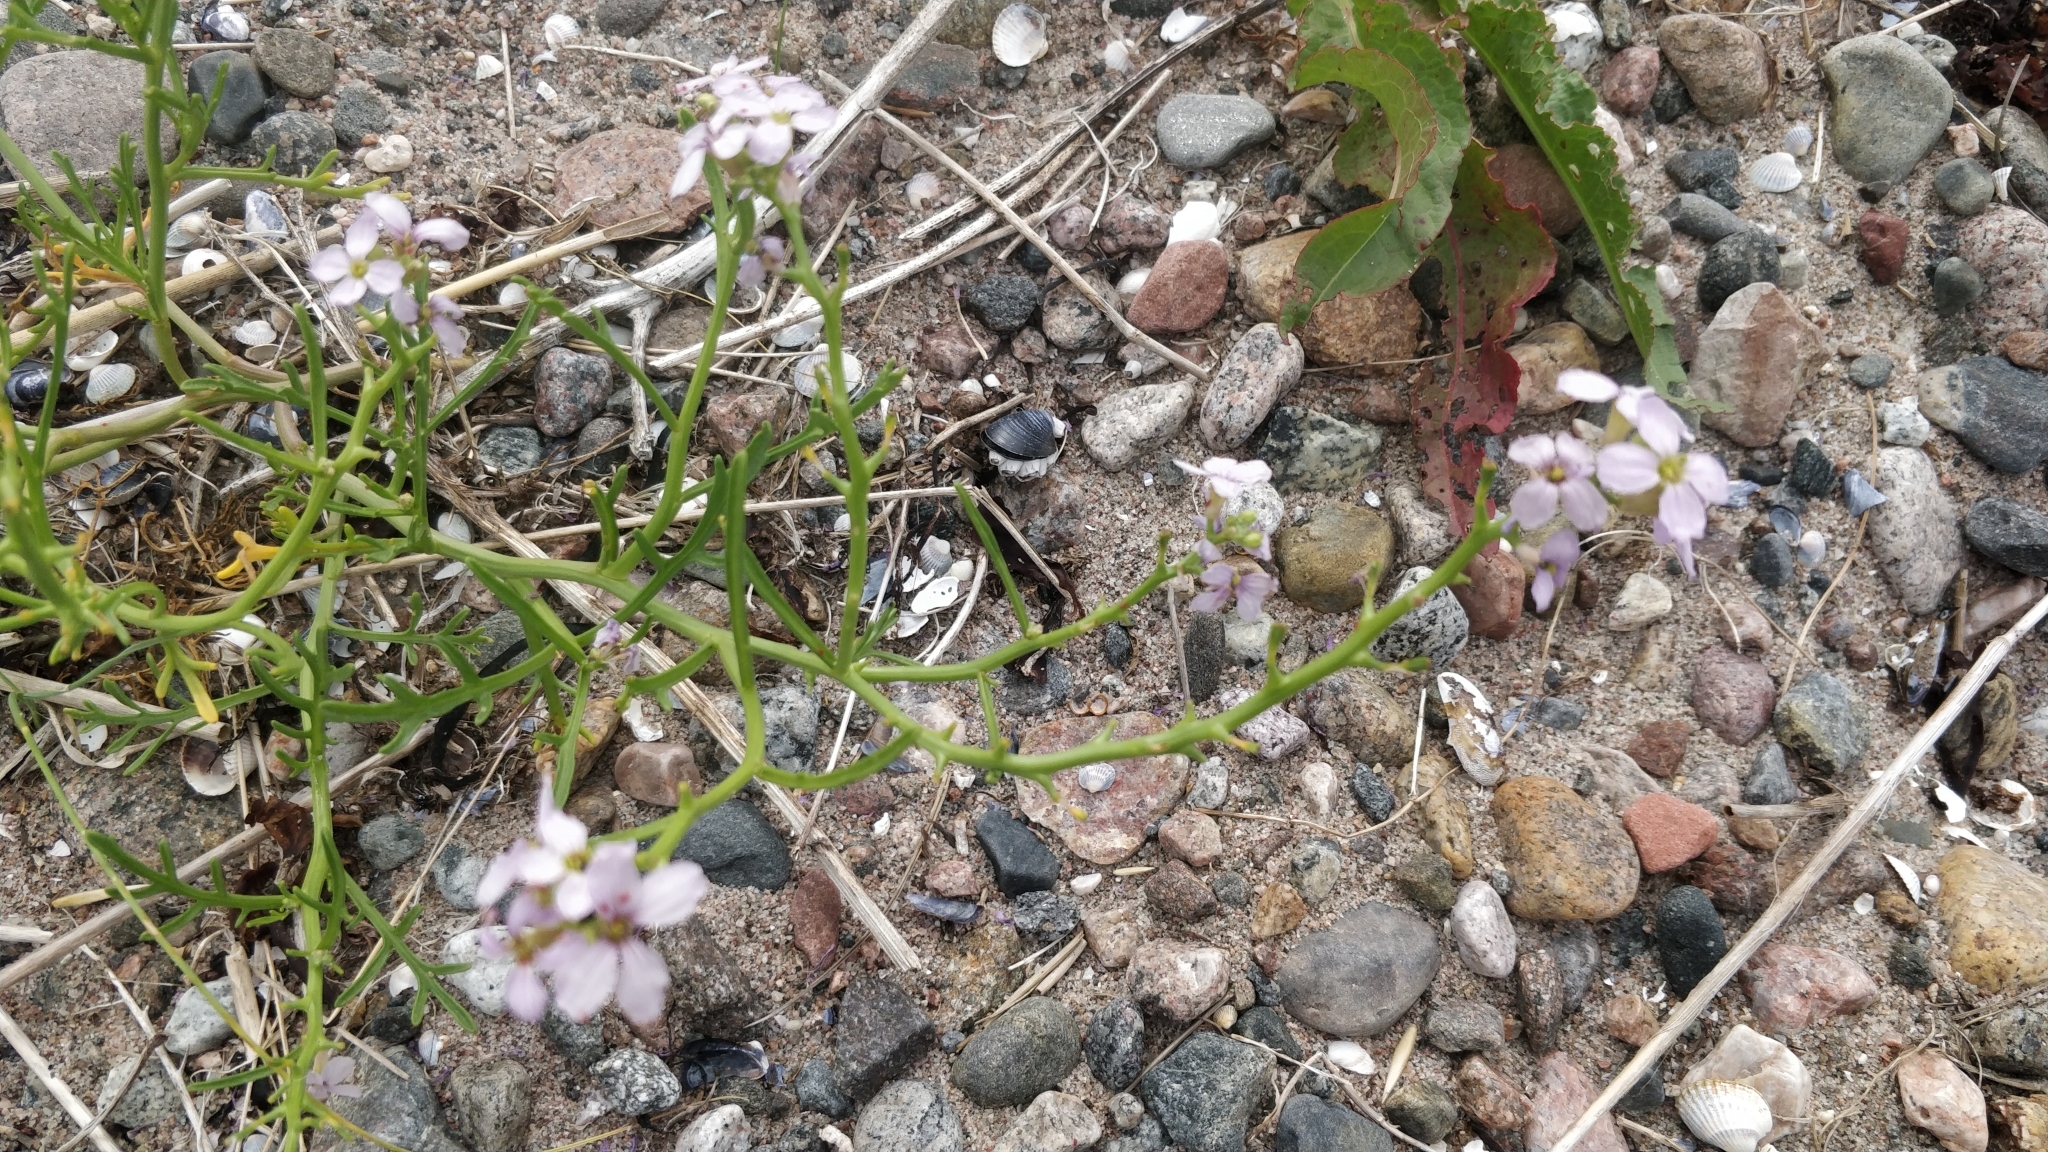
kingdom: Plantae
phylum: Tracheophyta
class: Magnoliopsida
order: Brassicales
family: Brassicaceae
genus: Cakile
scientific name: Cakile maritima
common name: Sea rocket
